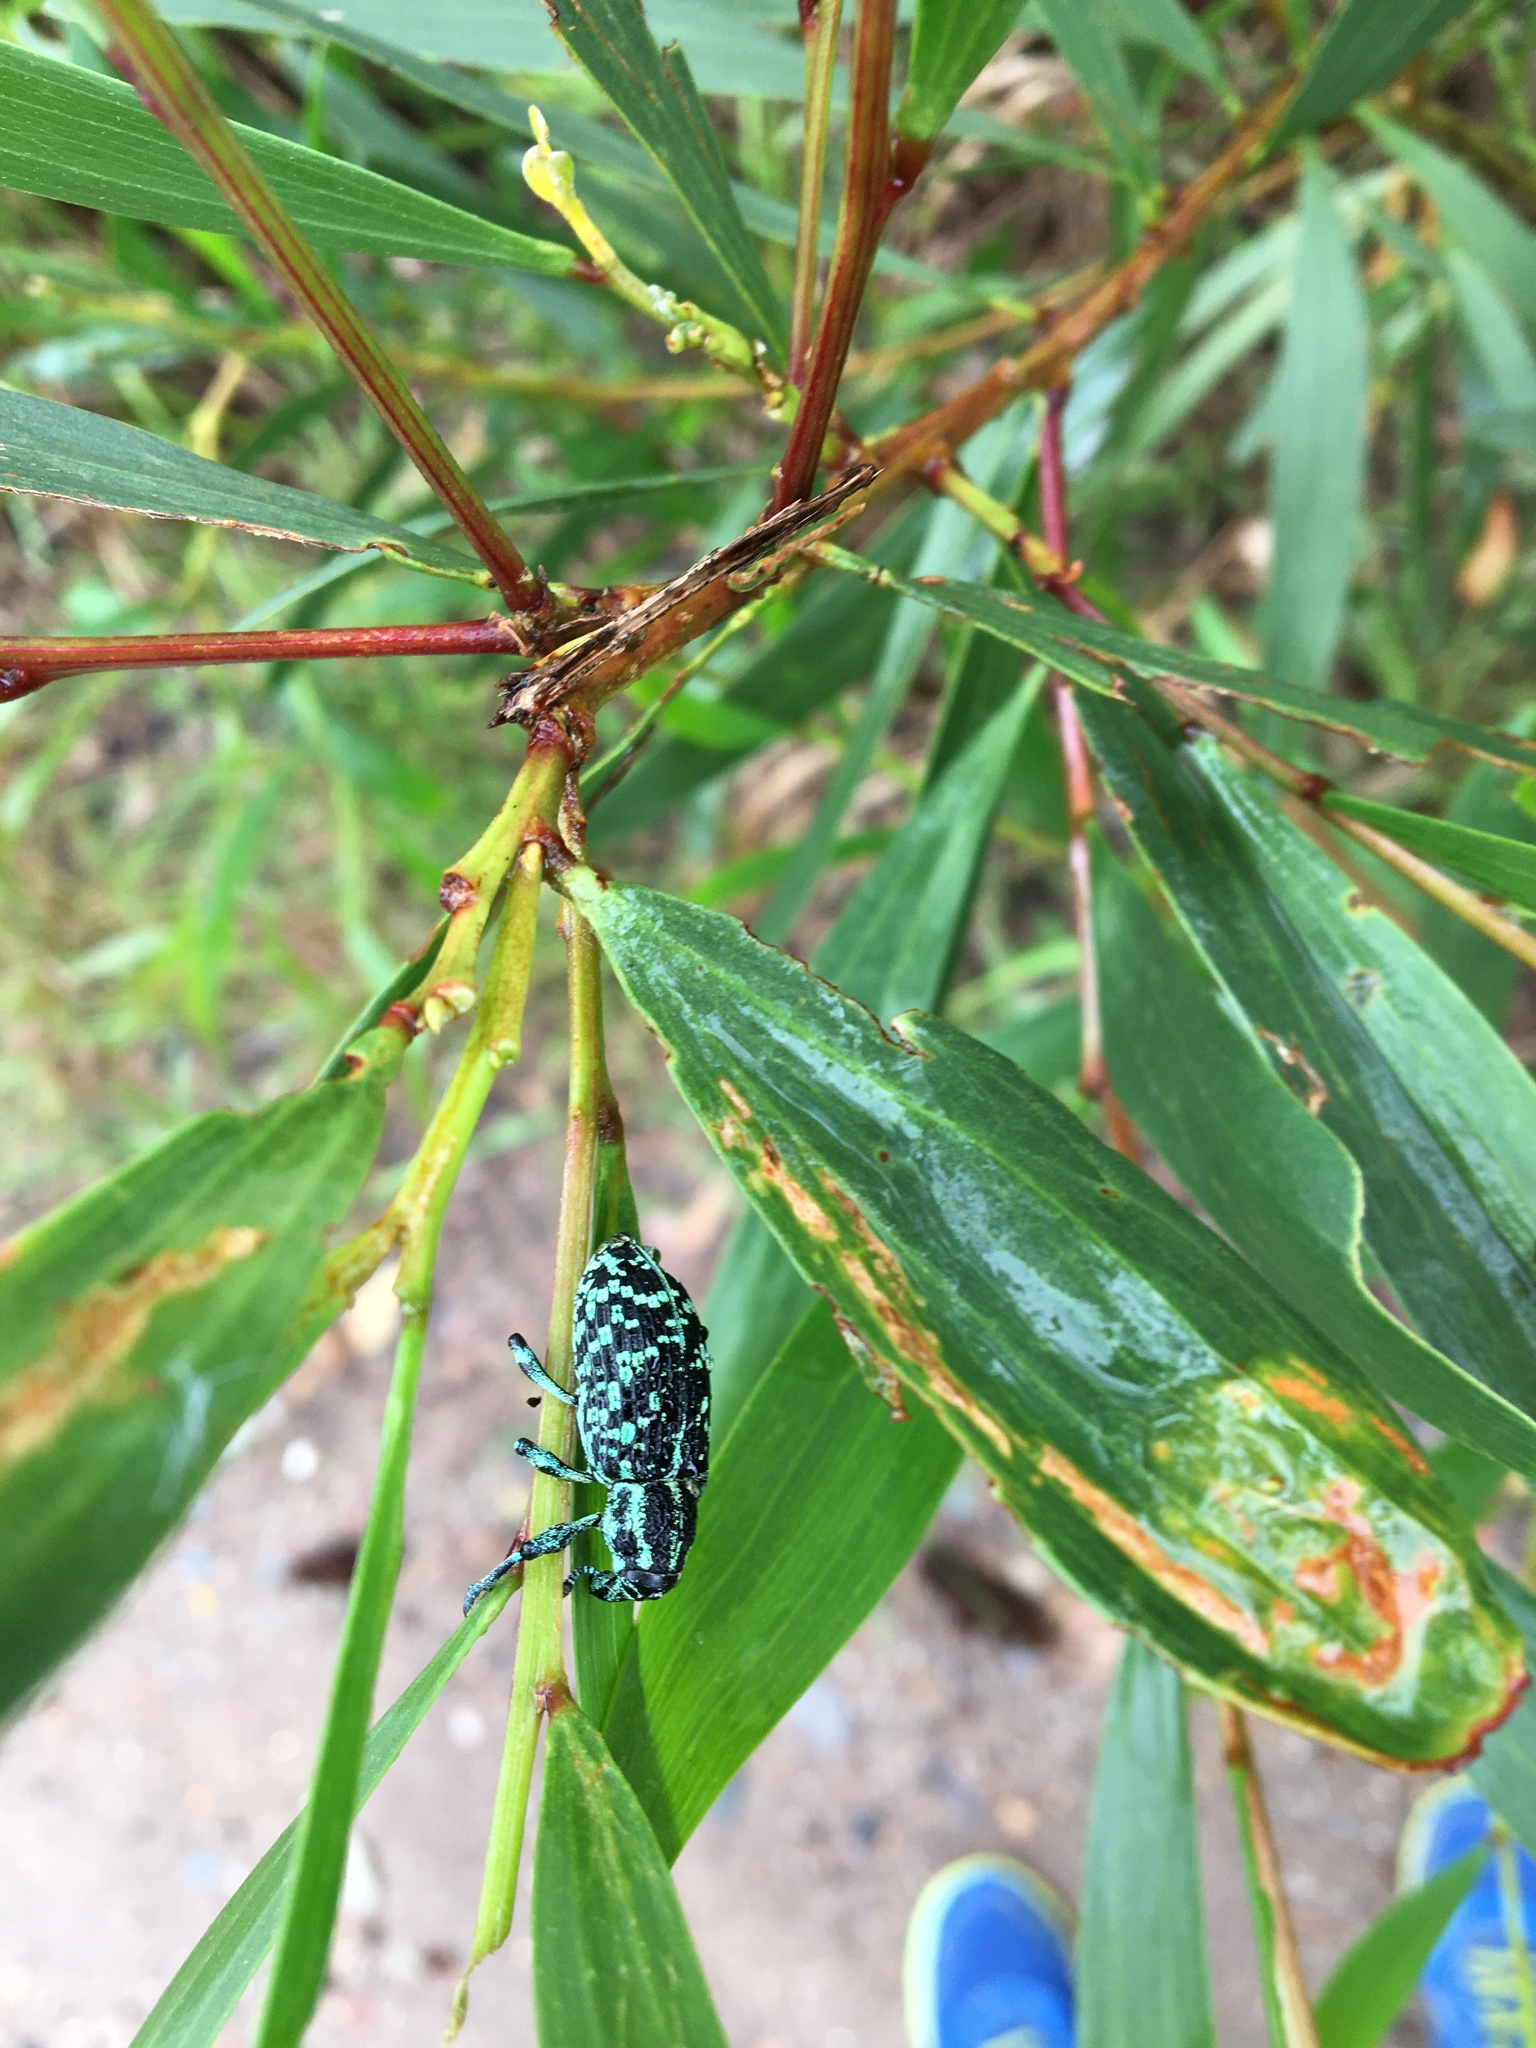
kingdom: Animalia
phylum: Arthropoda
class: Insecta
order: Coleoptera
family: Curculionidae
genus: Chrysolopus
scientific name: Chrysolopus spectabilis
